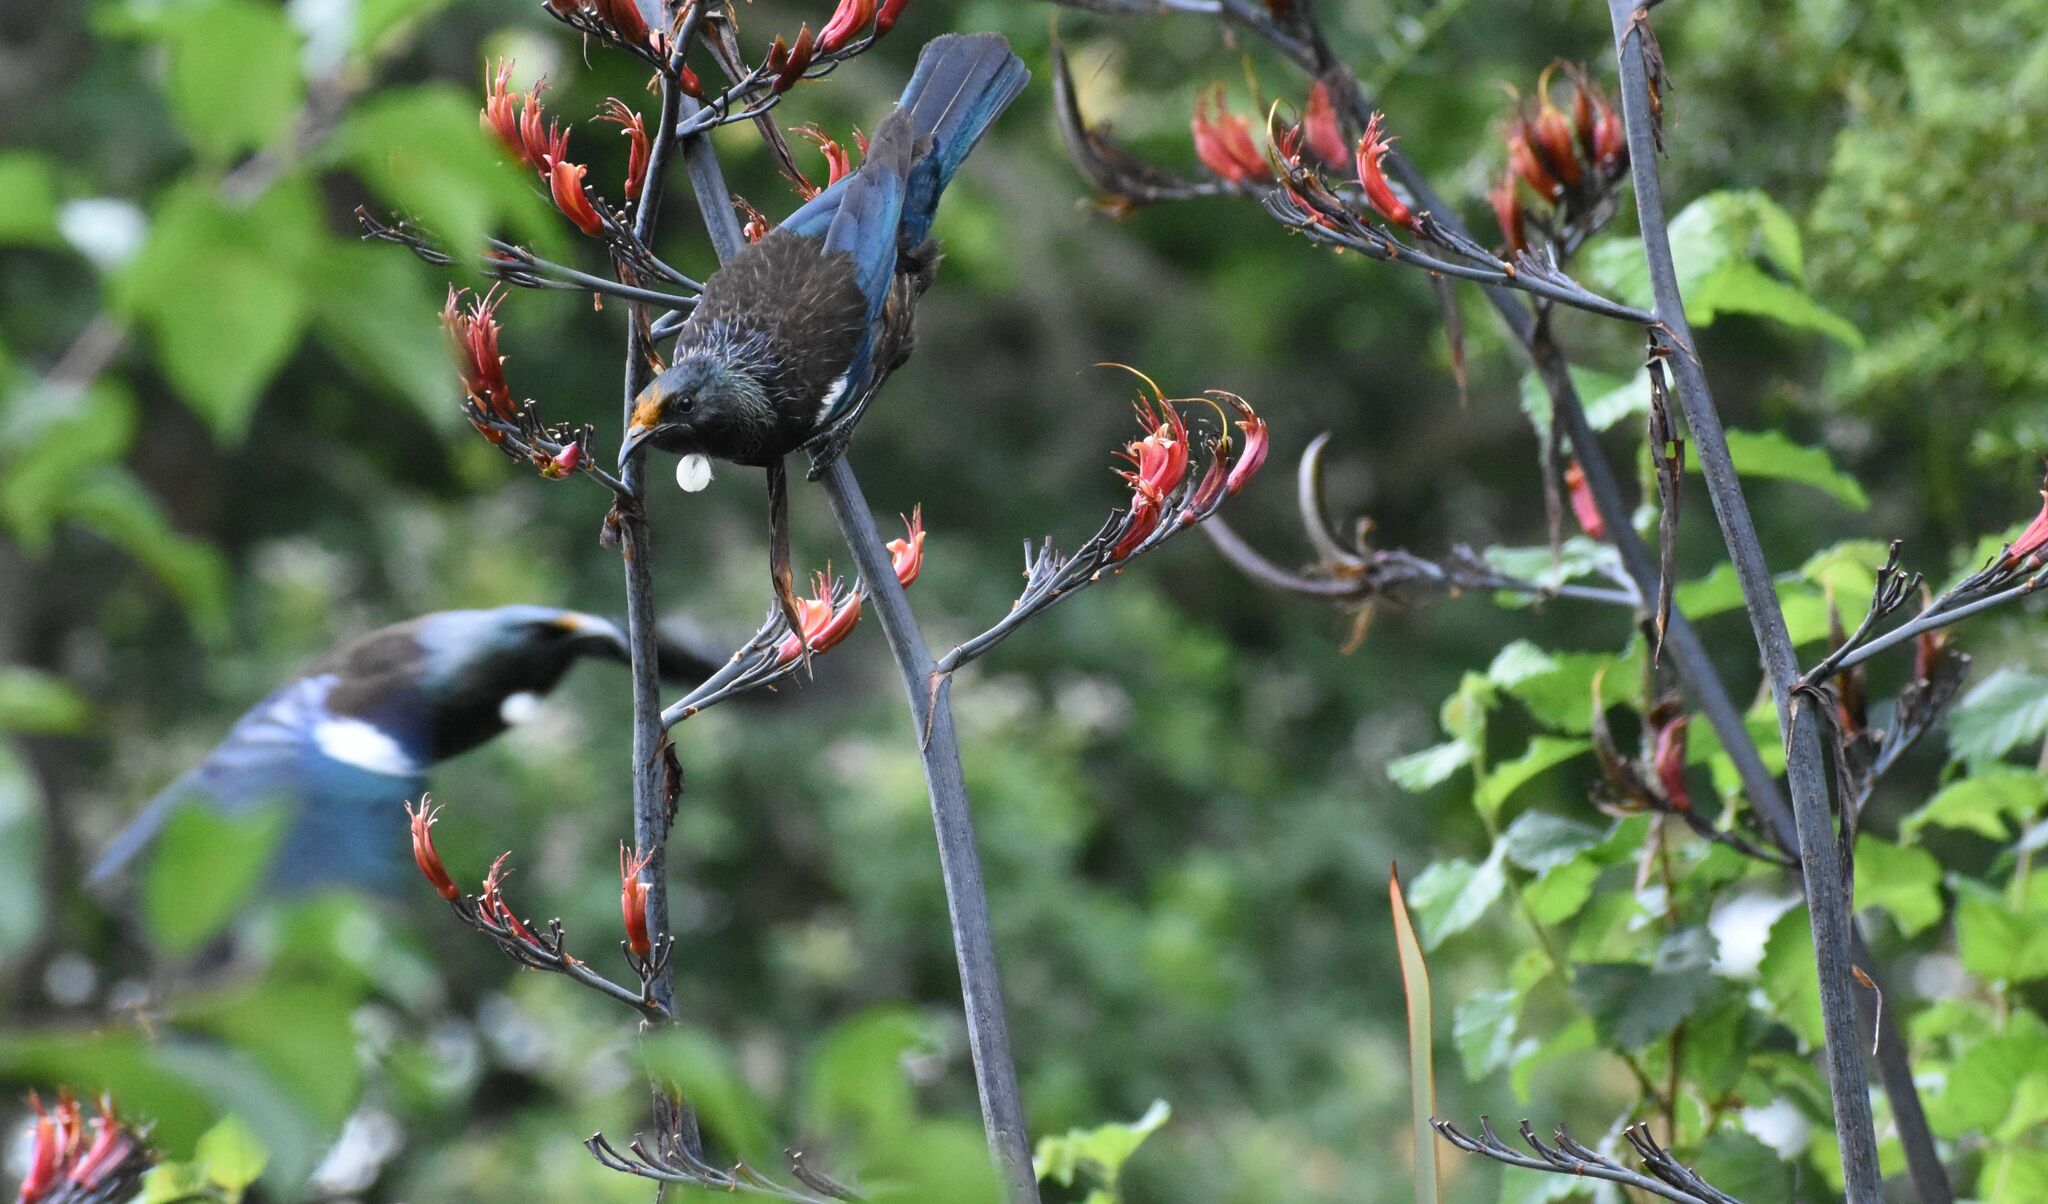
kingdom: Animalia
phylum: Chordata
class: Aves
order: Passeriformes
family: Meliphagidae
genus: Prosthemadera
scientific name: Prosthemadera novaeseelandiae
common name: Tui
